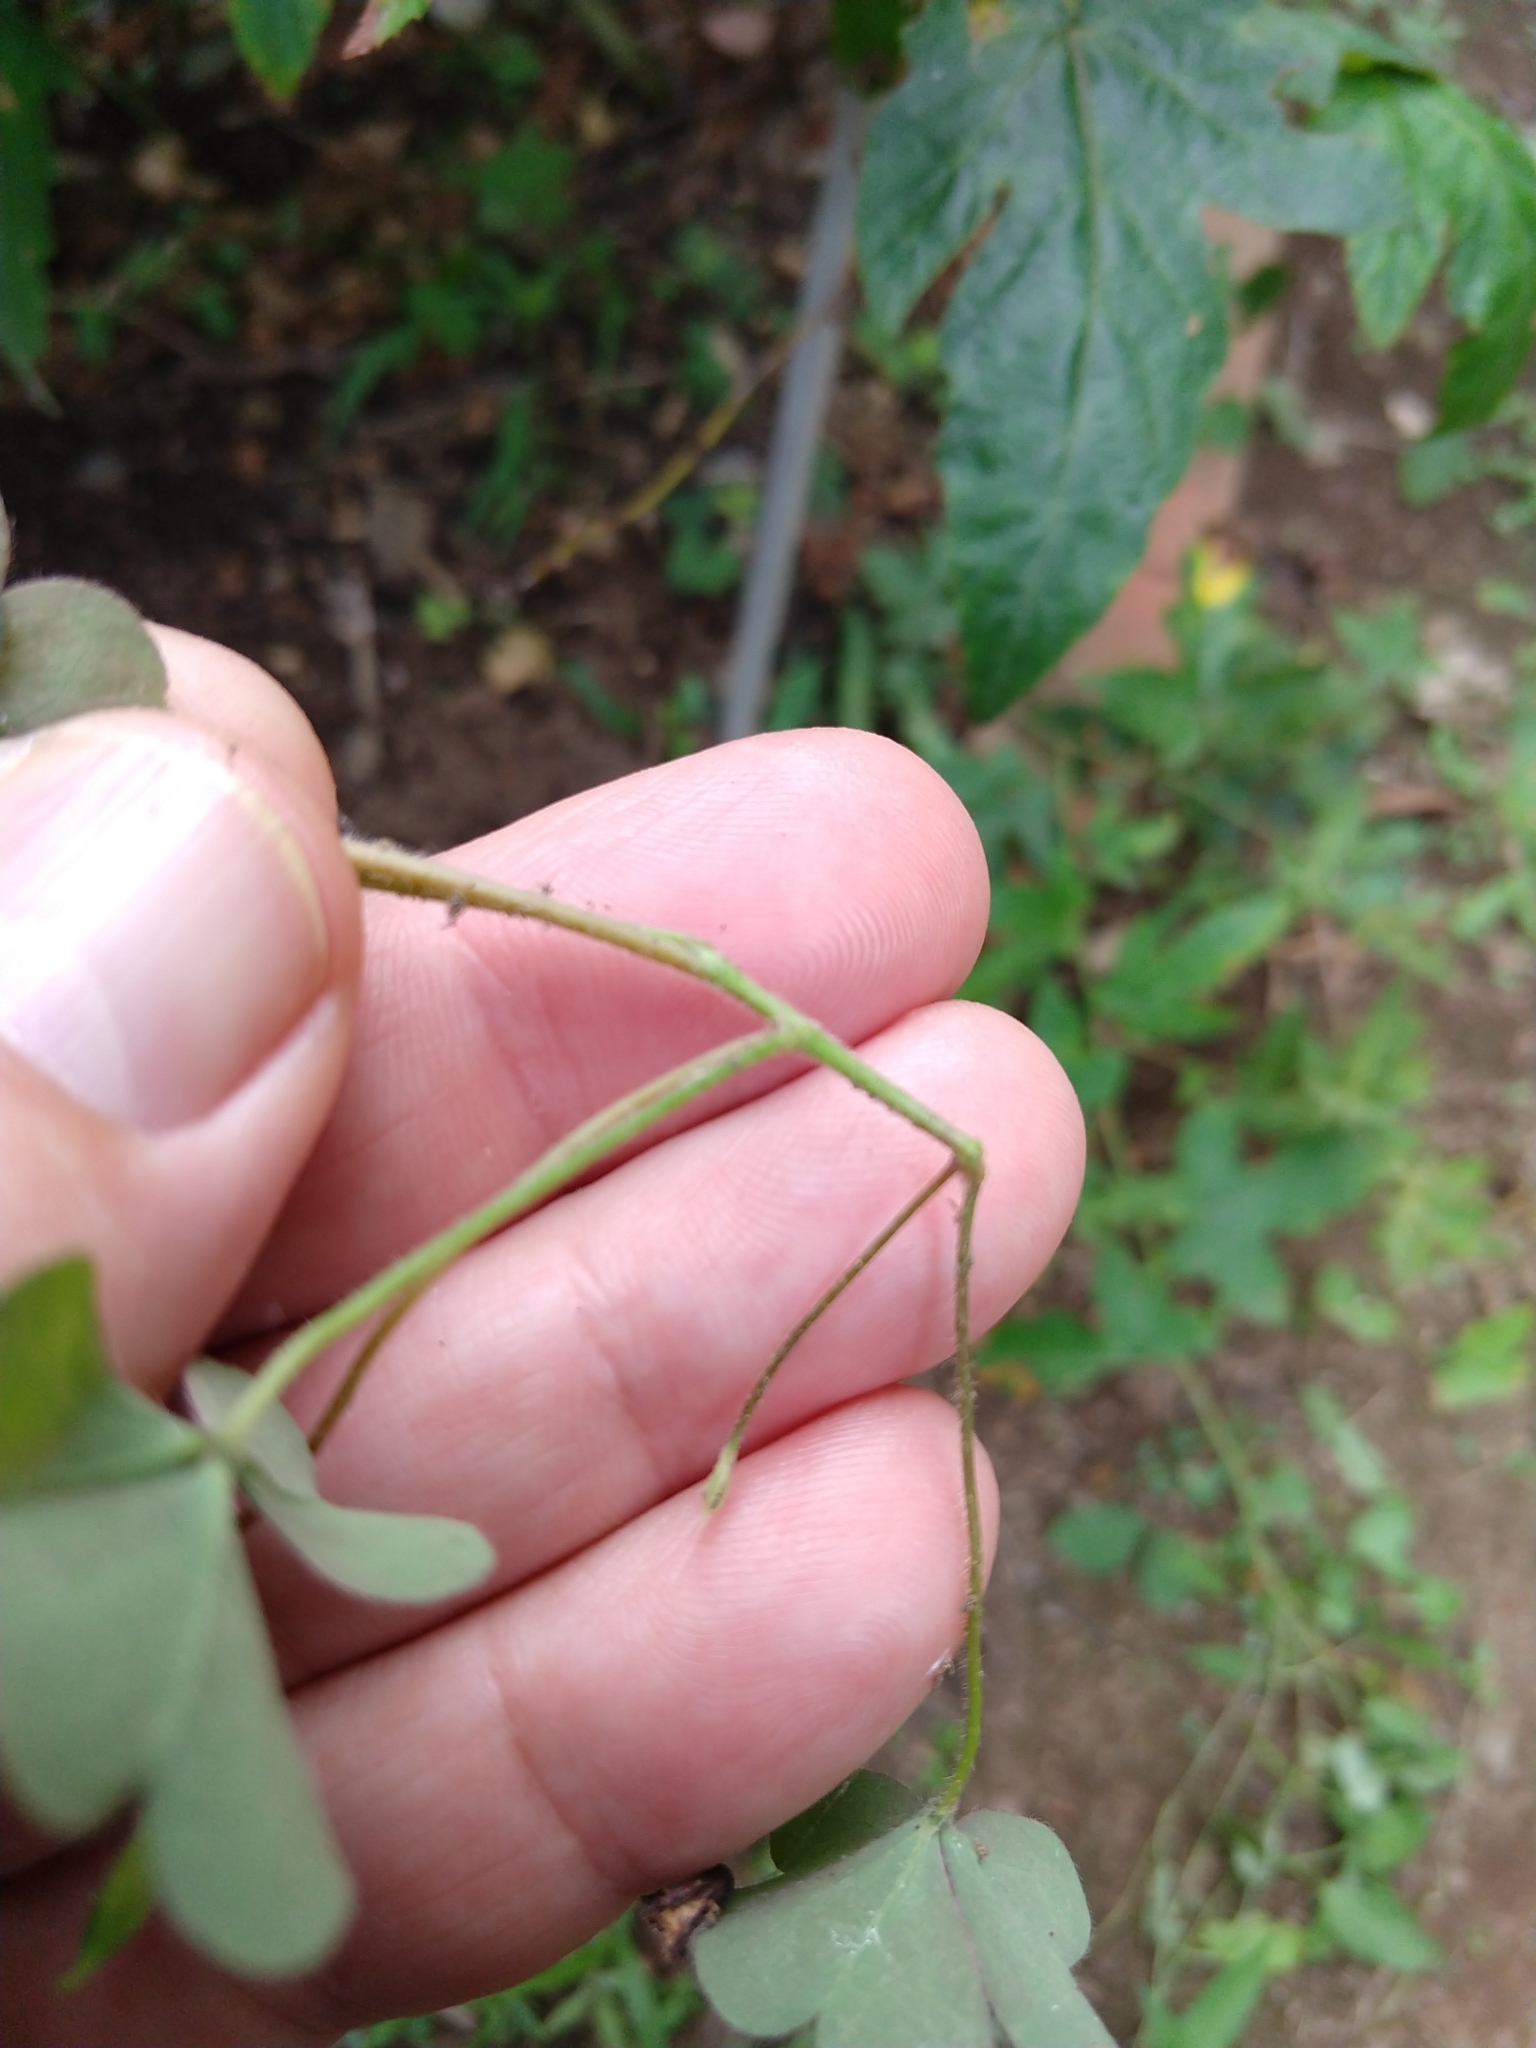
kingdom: Plantae
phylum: Tracheophyta
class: Magnoliopsida
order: Oxalidales
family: Oxalidaceae
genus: Oxalis
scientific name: Oxalis corniculata
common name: Procumbent yellow-sorrel
